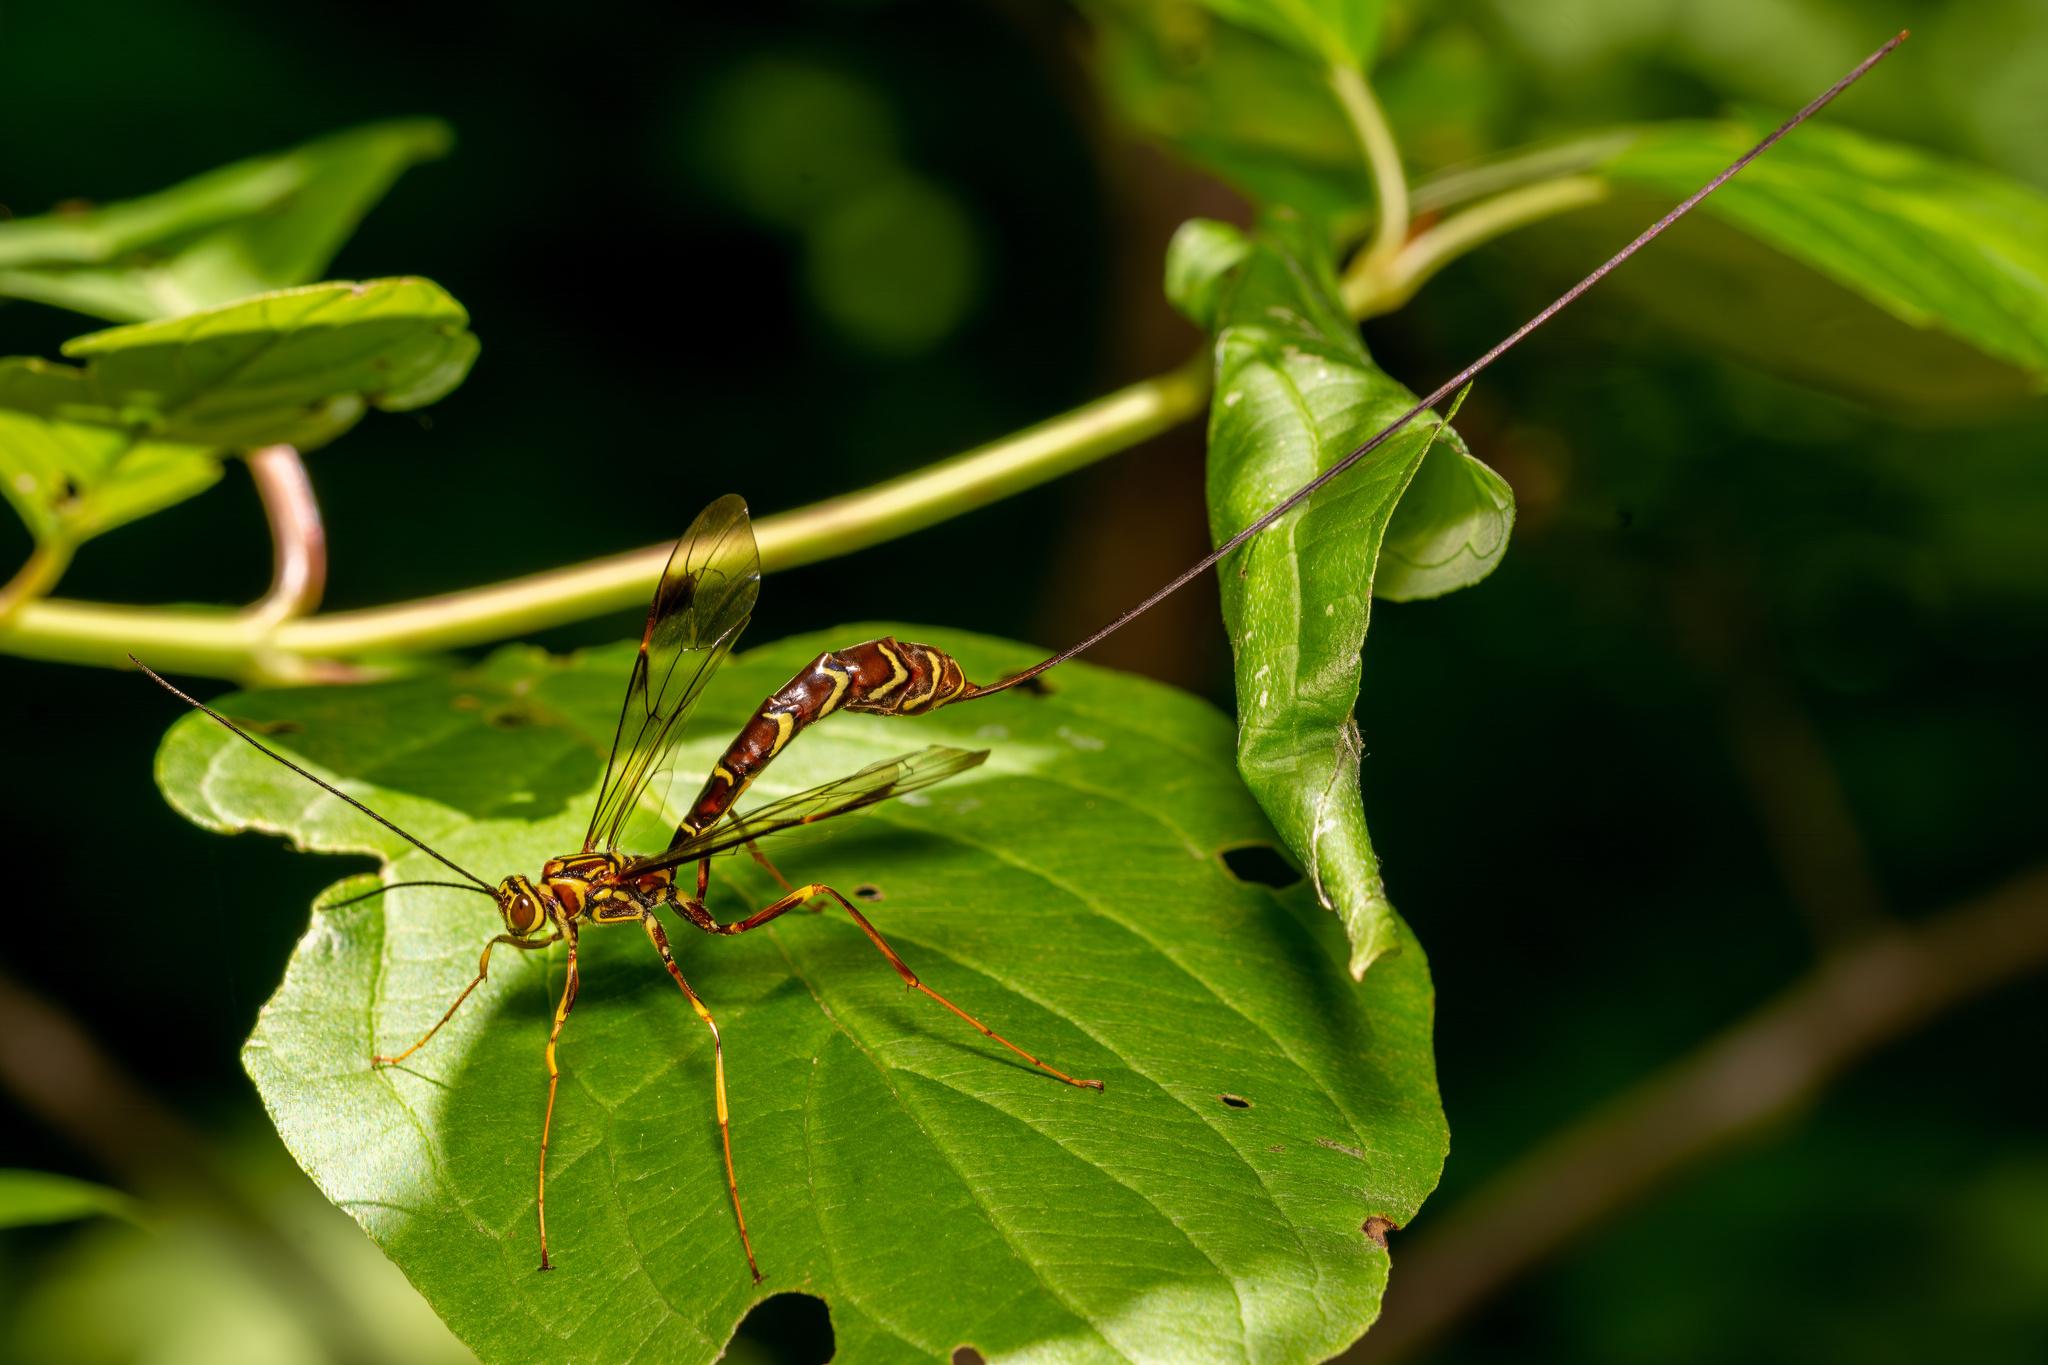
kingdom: Animalia
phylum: Arthropoda
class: Insecta
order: Hymenoptera
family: Ichneumonidae
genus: Megarhyssa
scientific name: Megarhyssa macrura
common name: Long-tailed giant ichneumonid wasp
